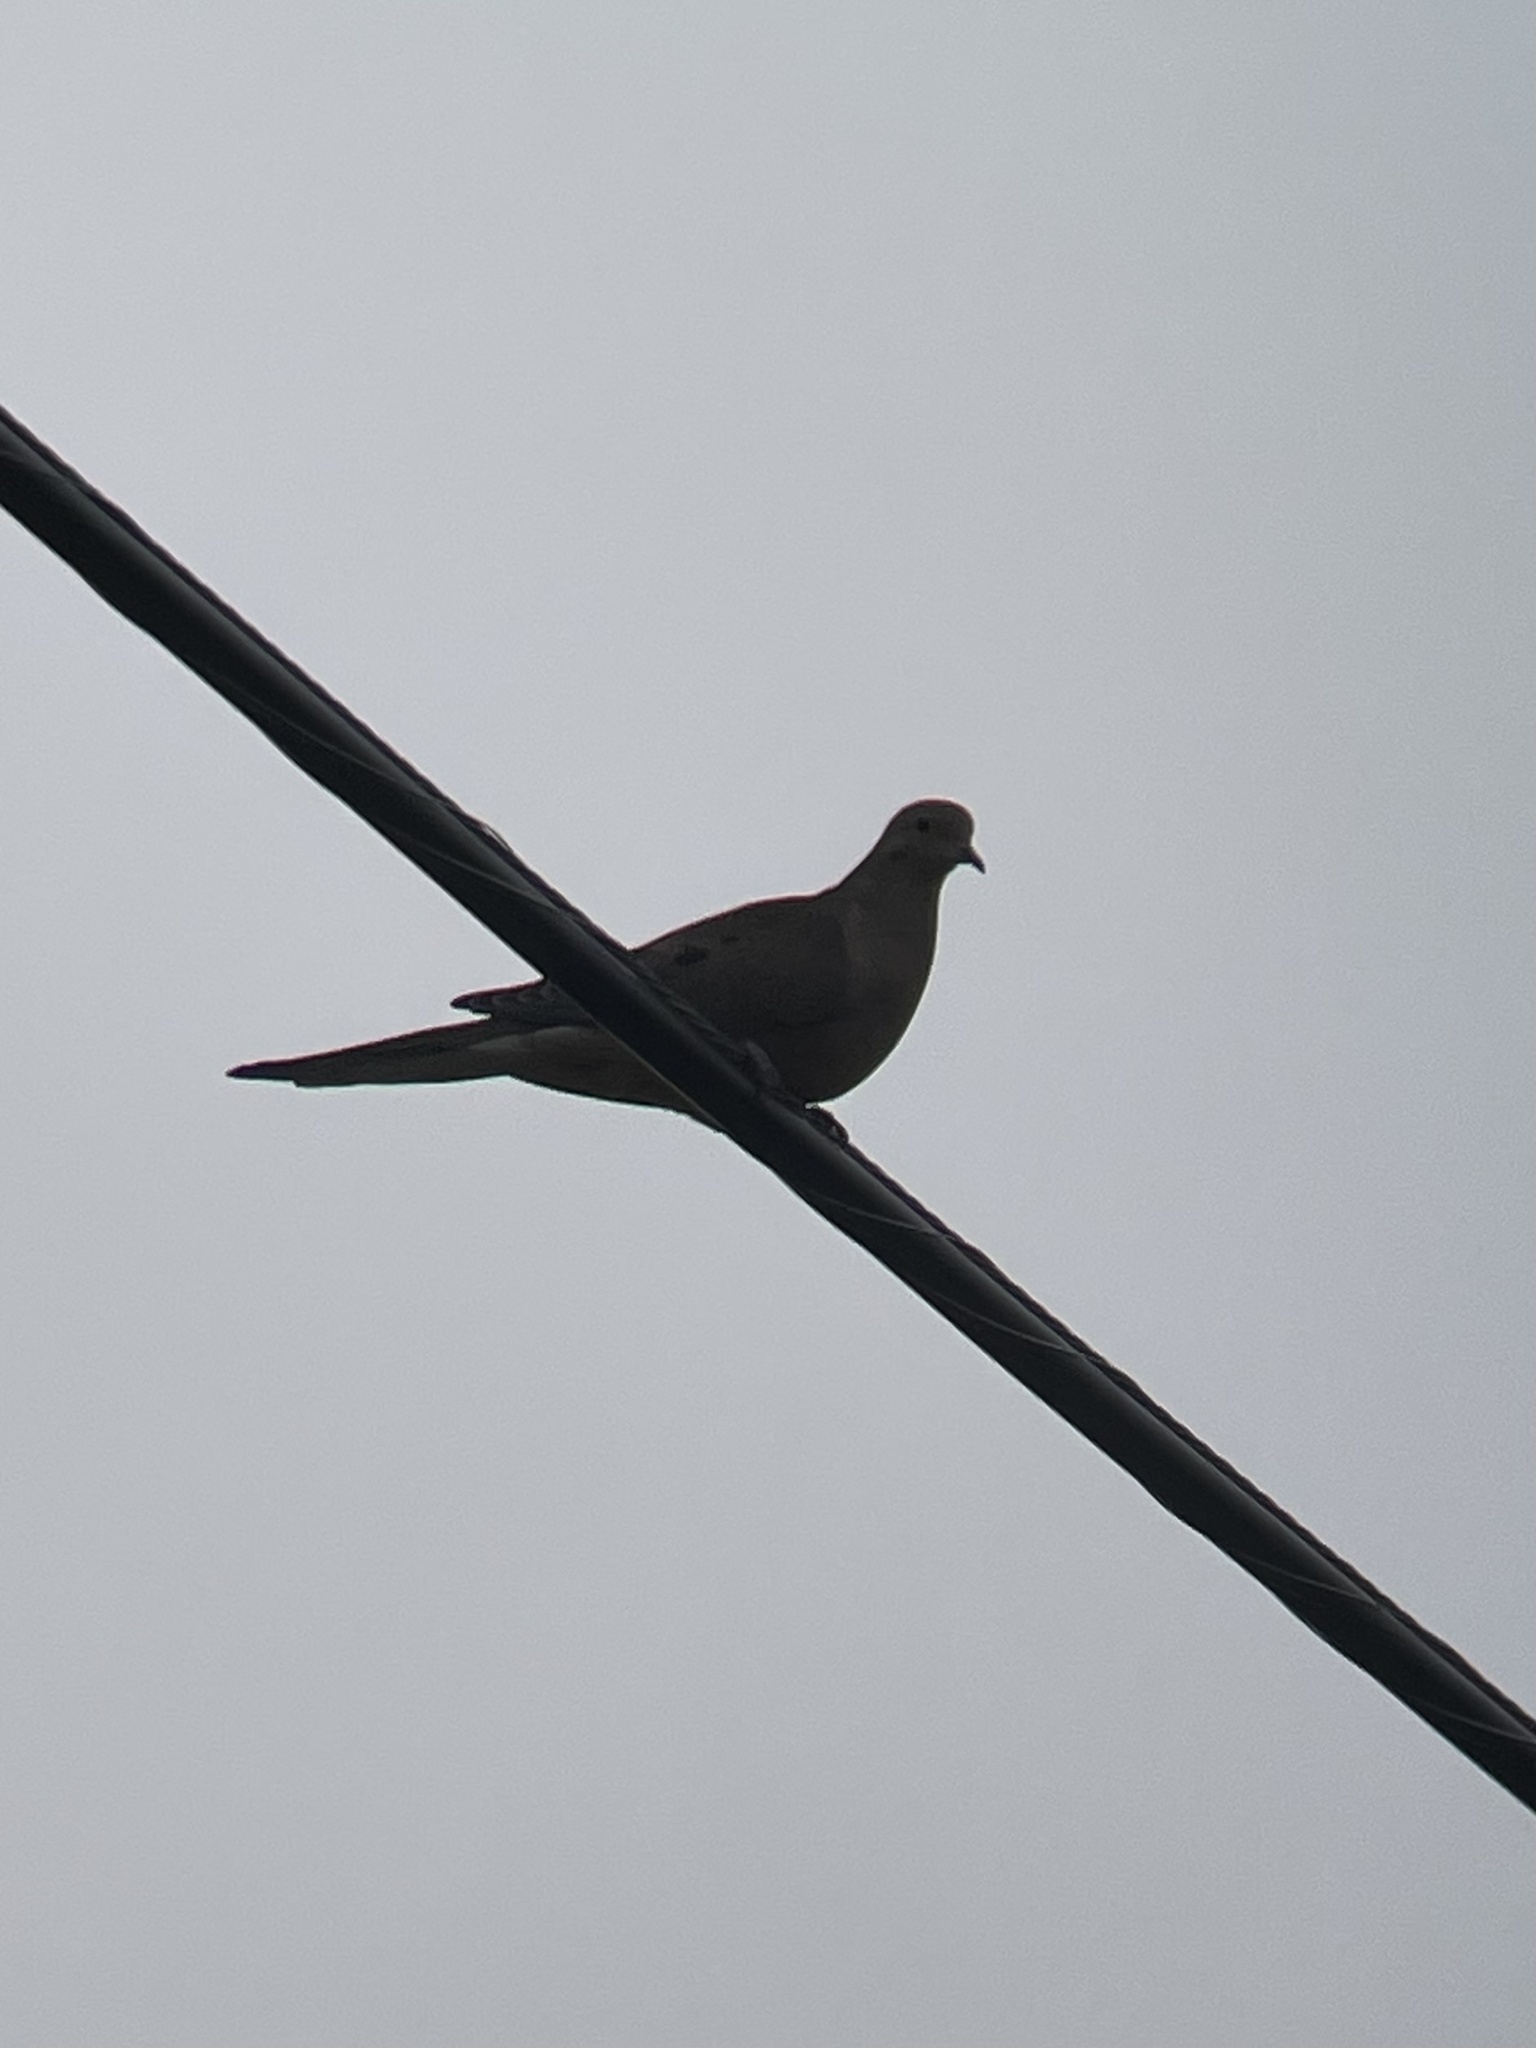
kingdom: Animalia
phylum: Chordata
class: Aves
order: Columbiformes
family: Columbidae
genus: Zenaida
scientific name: Zenaida macroura
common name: Mourning dove
